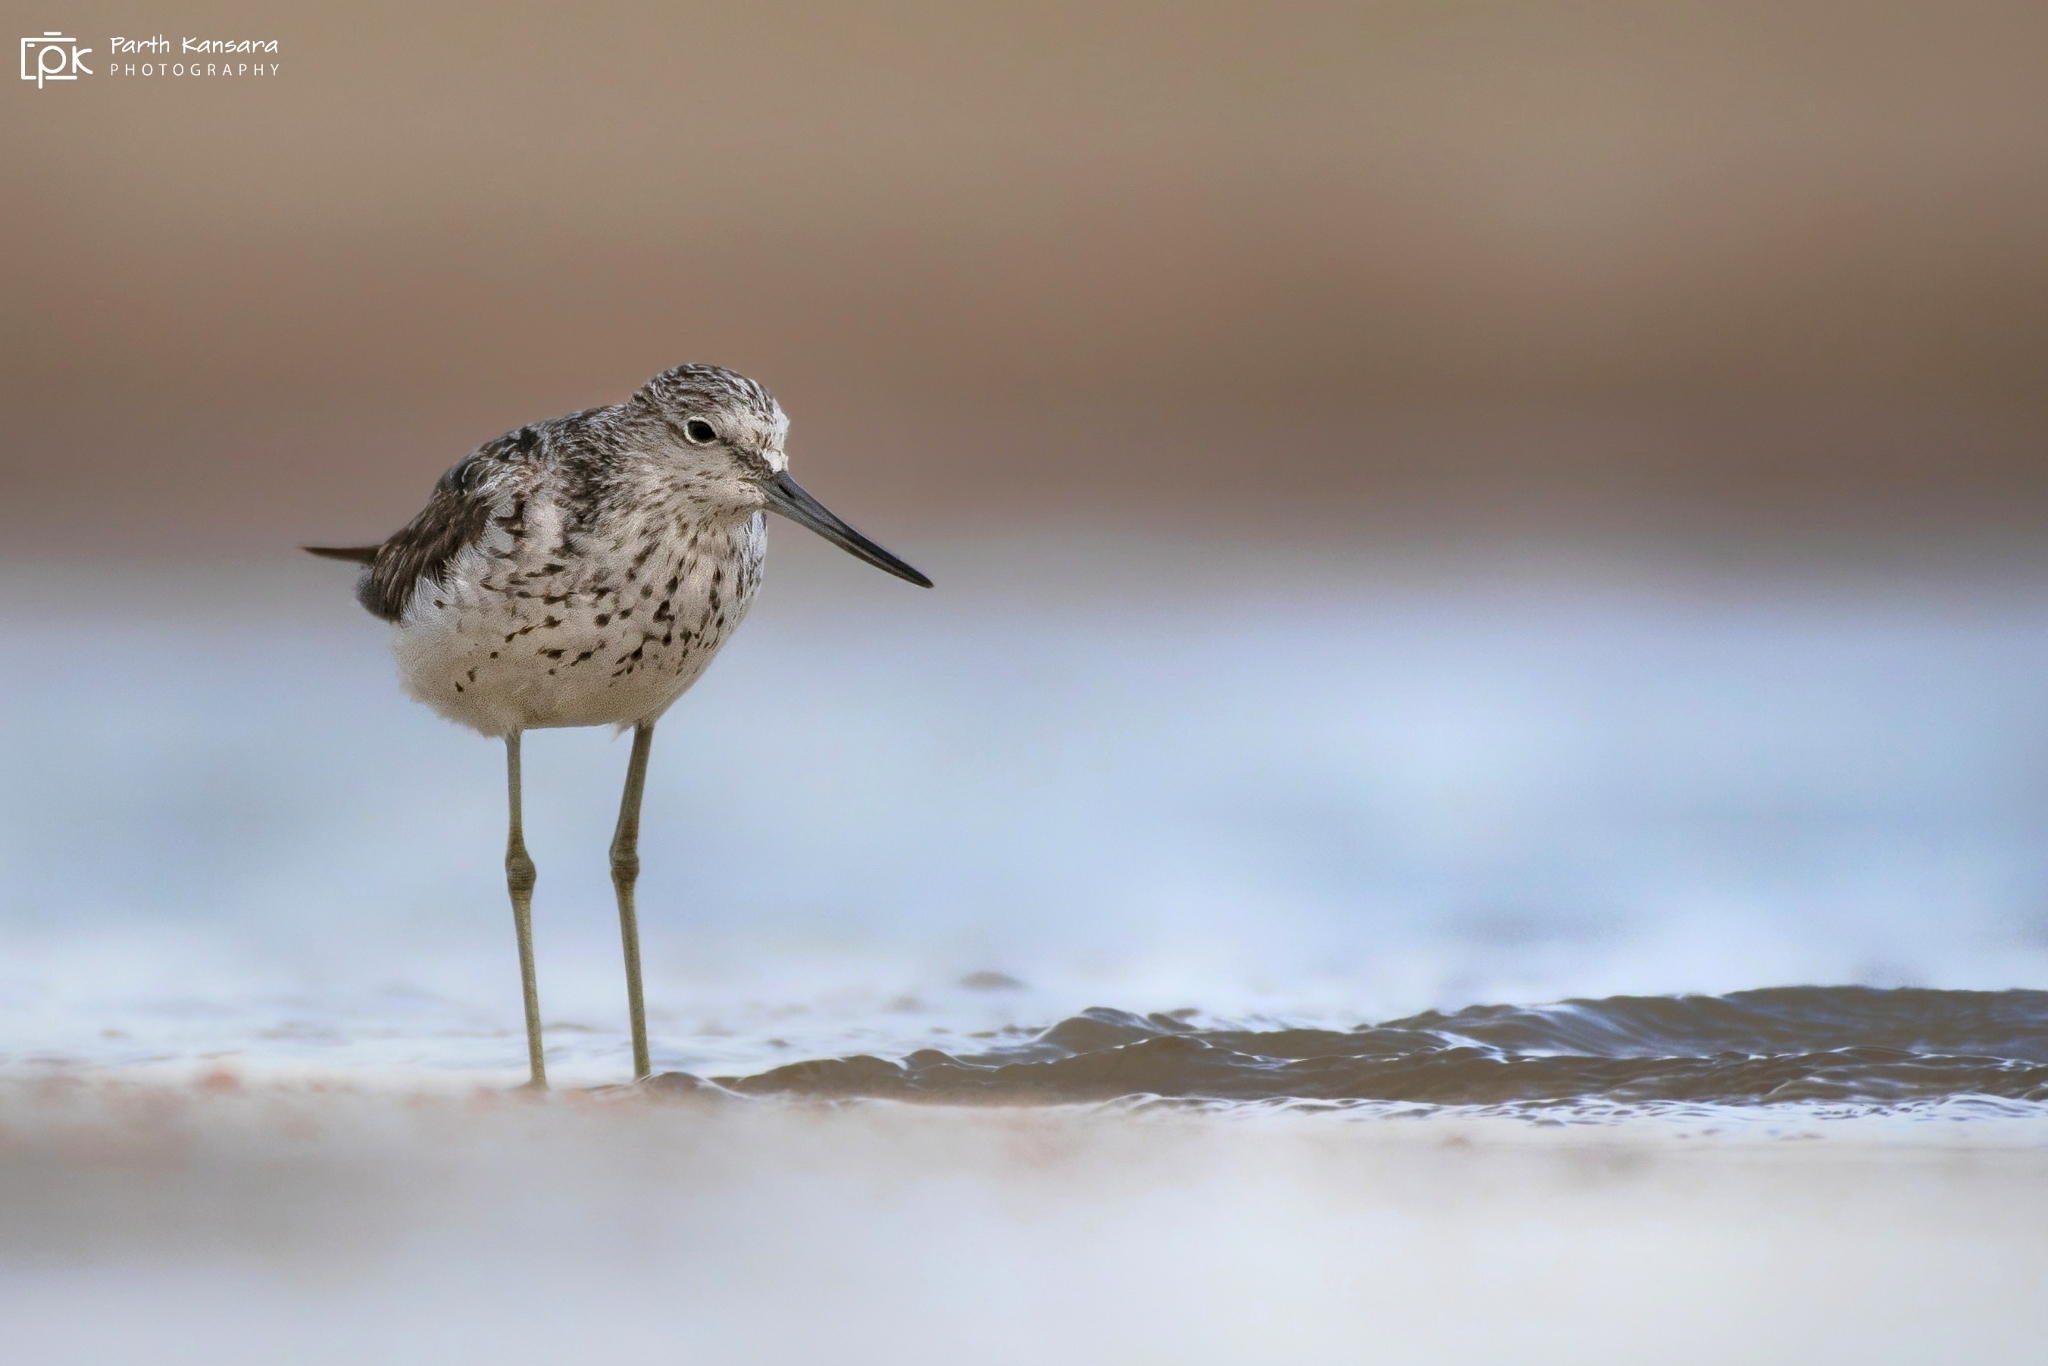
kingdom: Animalia
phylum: Chordata
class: Aves
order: Charadriiformes
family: Scolopacidae
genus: Tringa
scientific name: Tringa nebularia
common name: Common greenshank
